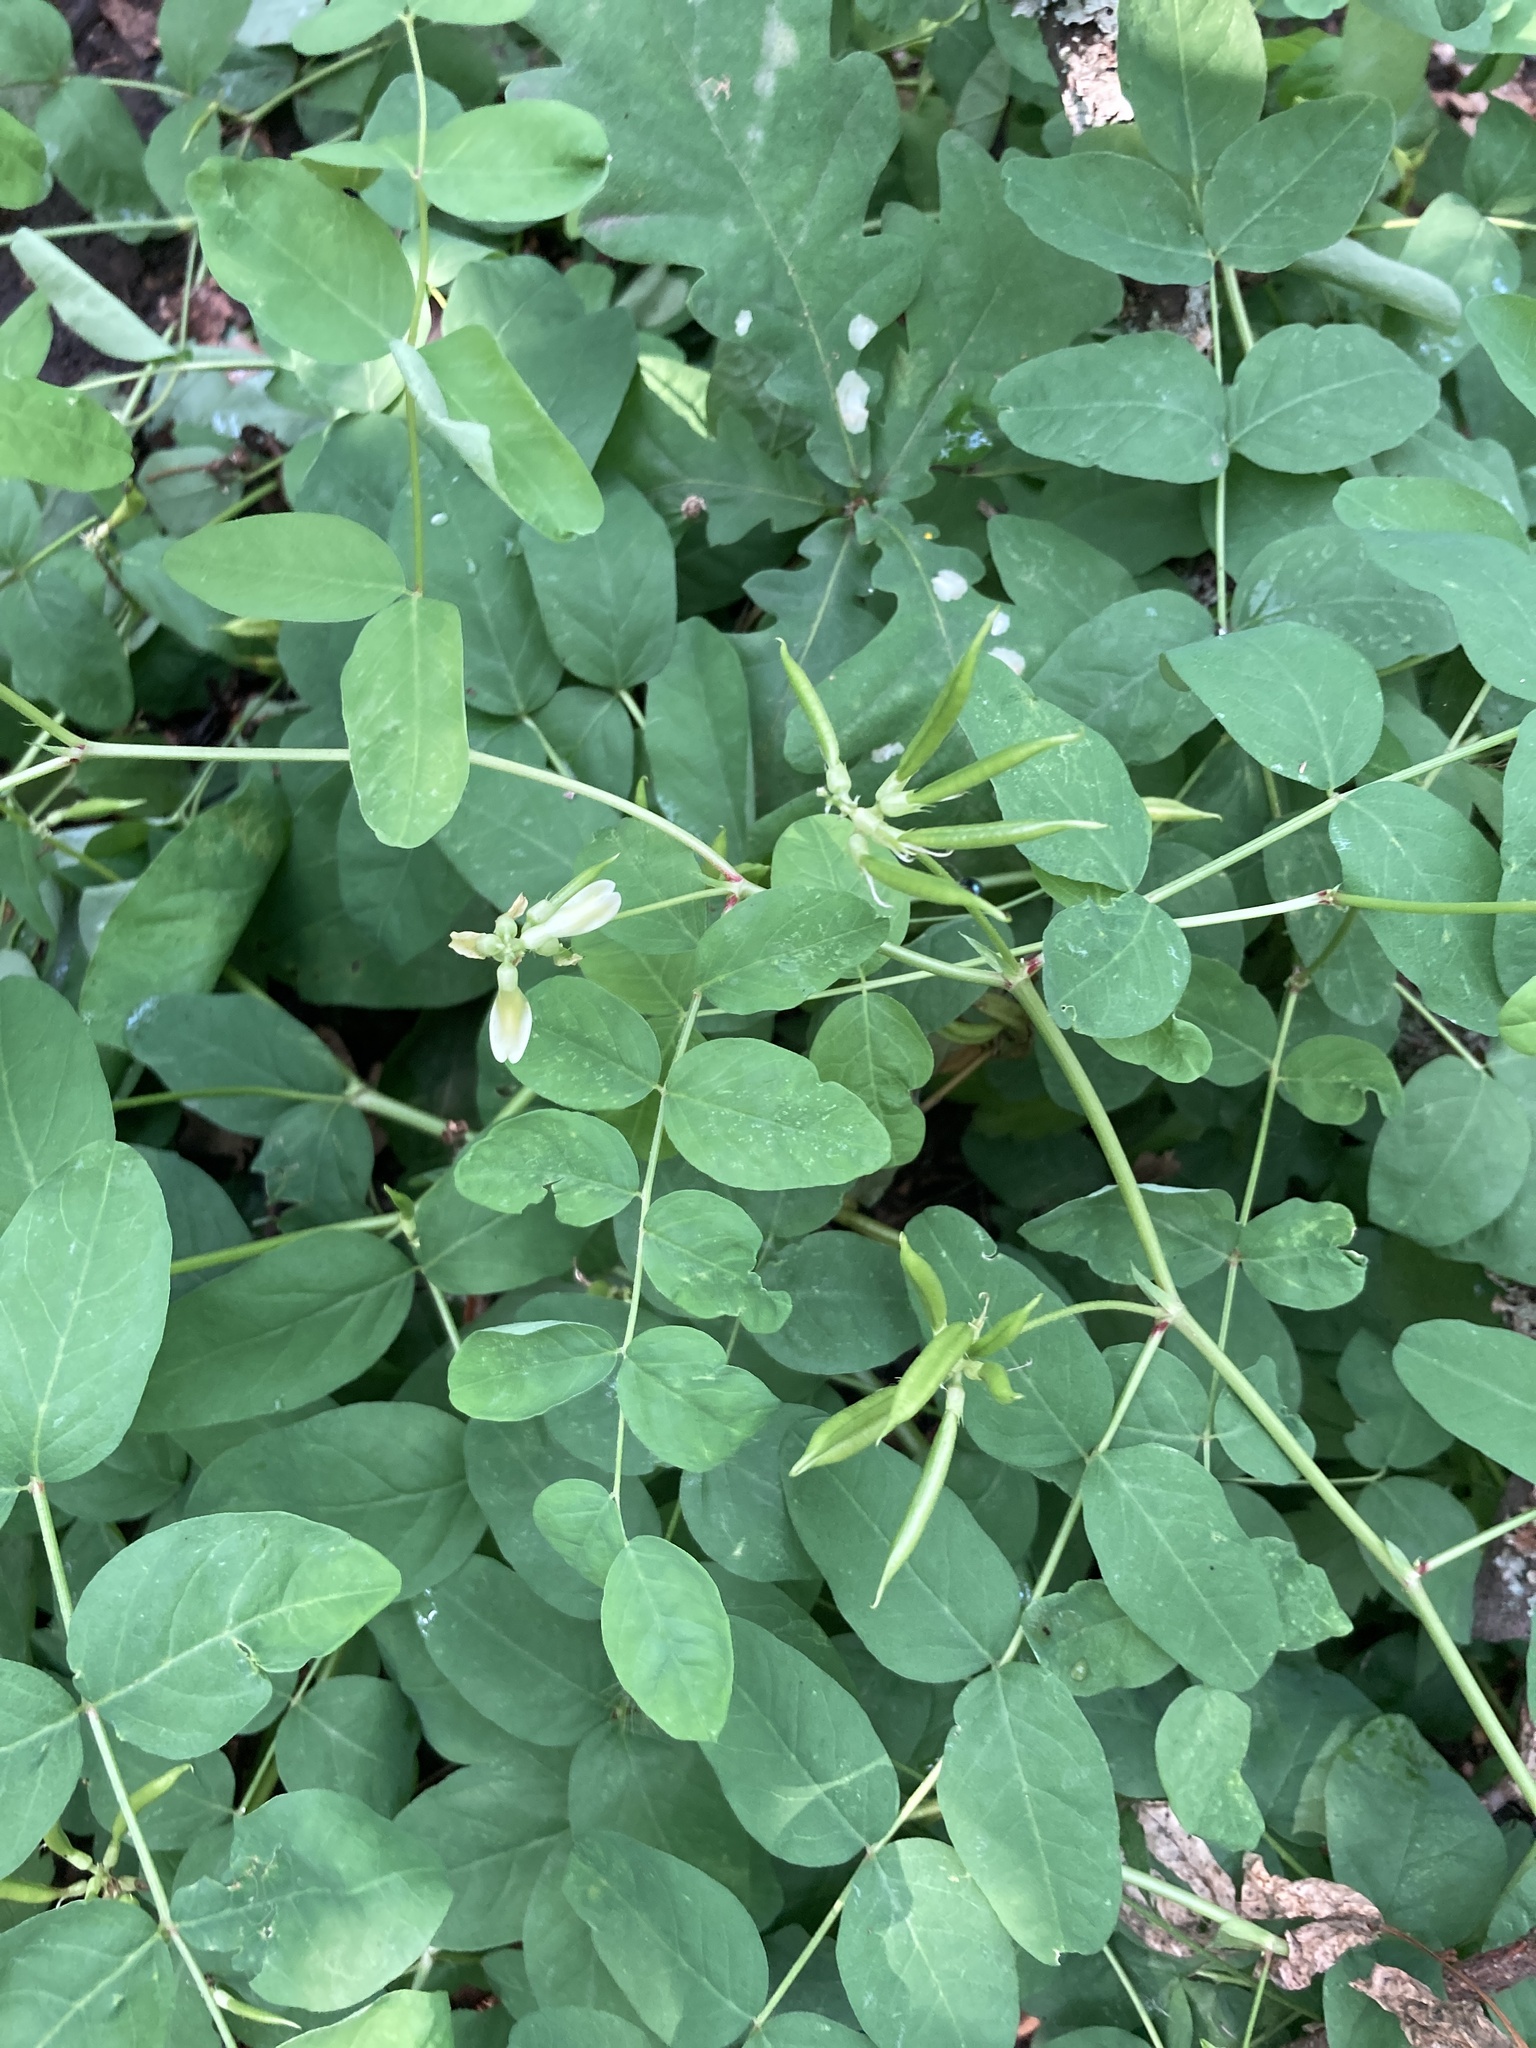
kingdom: Plantae
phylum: Tracheophyta
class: Magnoliopsida
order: Fabales
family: Fabaceae
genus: Astragalus
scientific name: Astragalus glycyphyllos
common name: Wild liquorice
